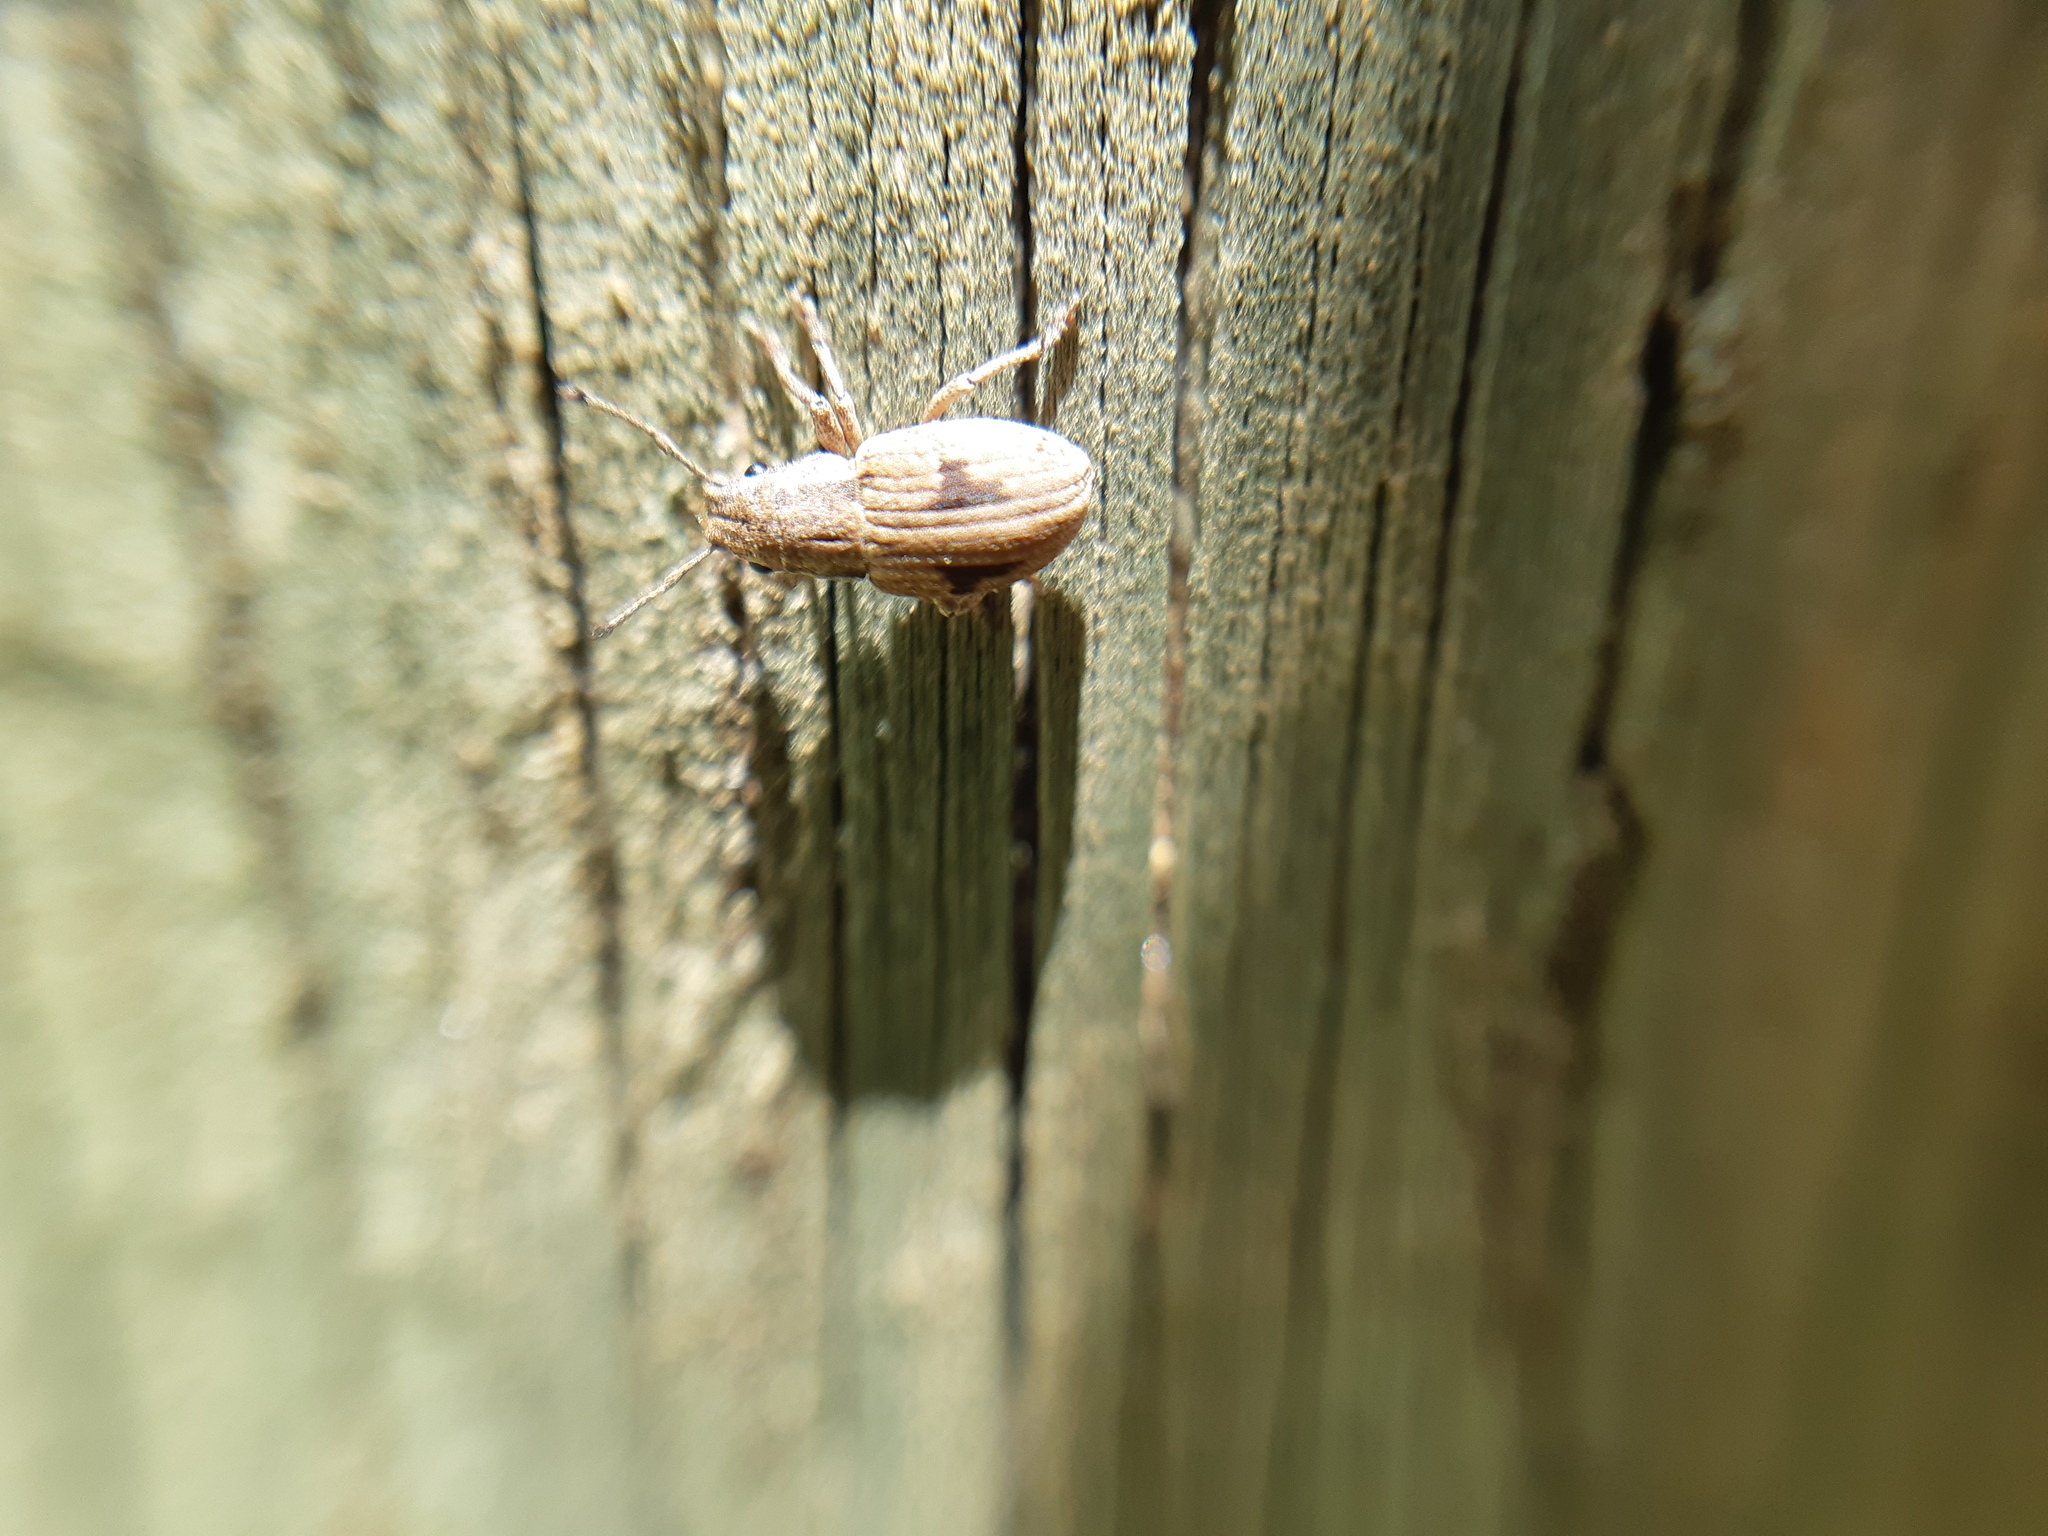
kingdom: Animalia
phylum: Arthropoda
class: Insecta
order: Coleoptera
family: Curculionidae
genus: Eurymetopus
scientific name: Eurymetopus birabeni
